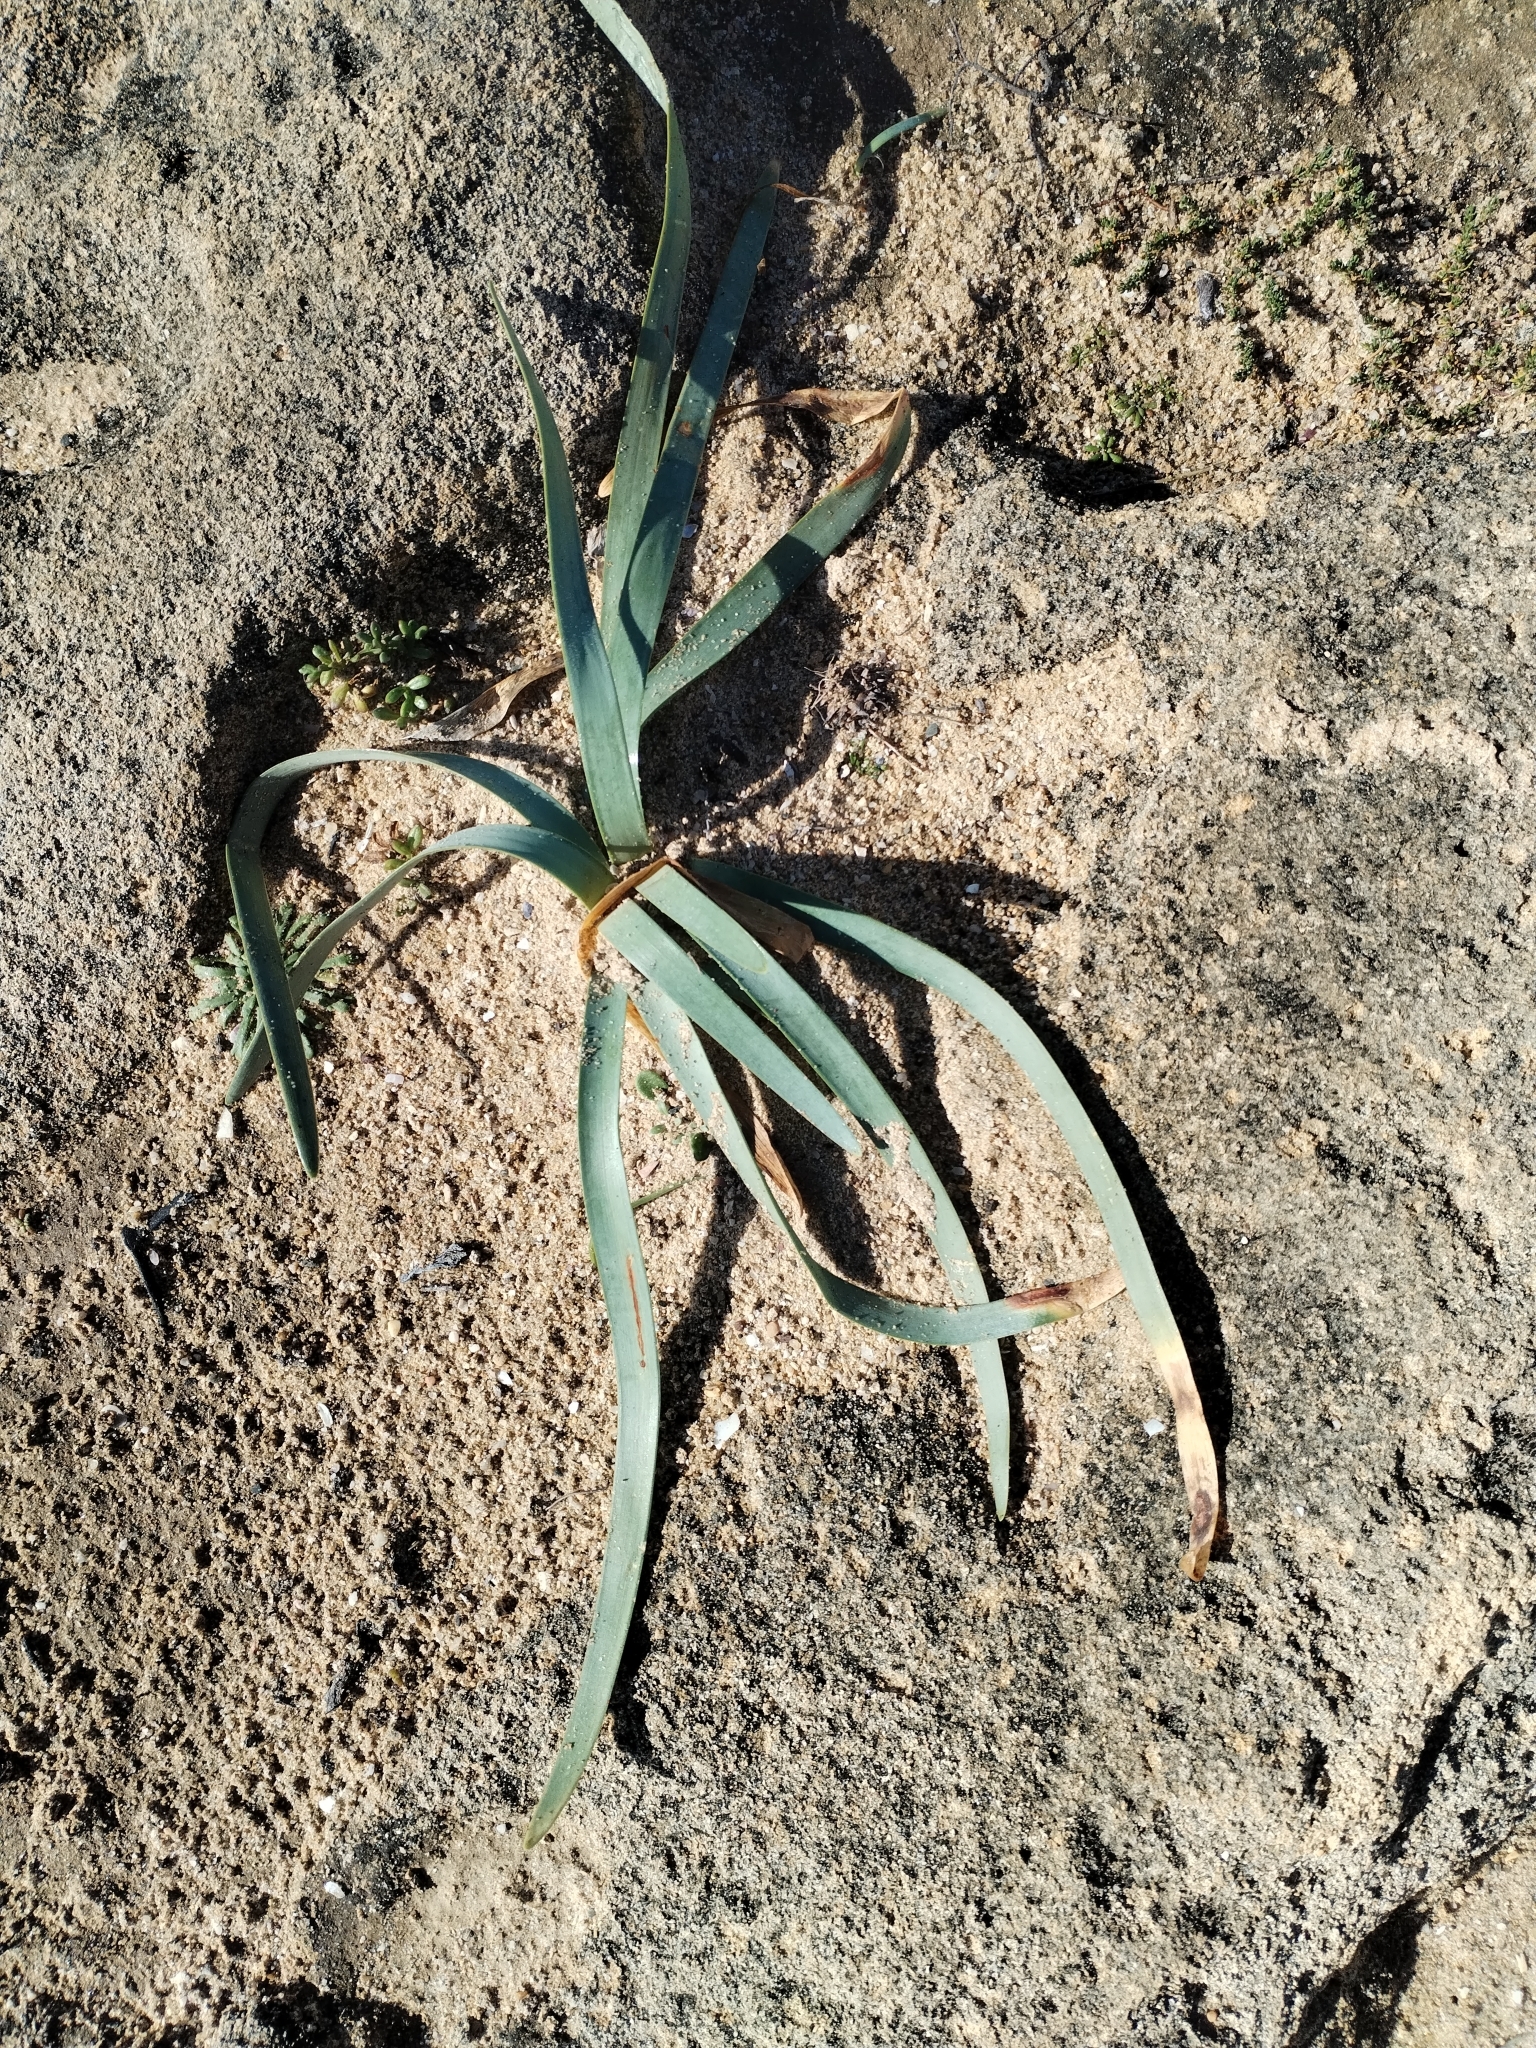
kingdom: Plantae
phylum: Tracheophyta
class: Liliopsida
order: Asparagales
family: Amaryllidaceae
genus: Pancratium
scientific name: Pancratium maritimum
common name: Sea-daffodil
